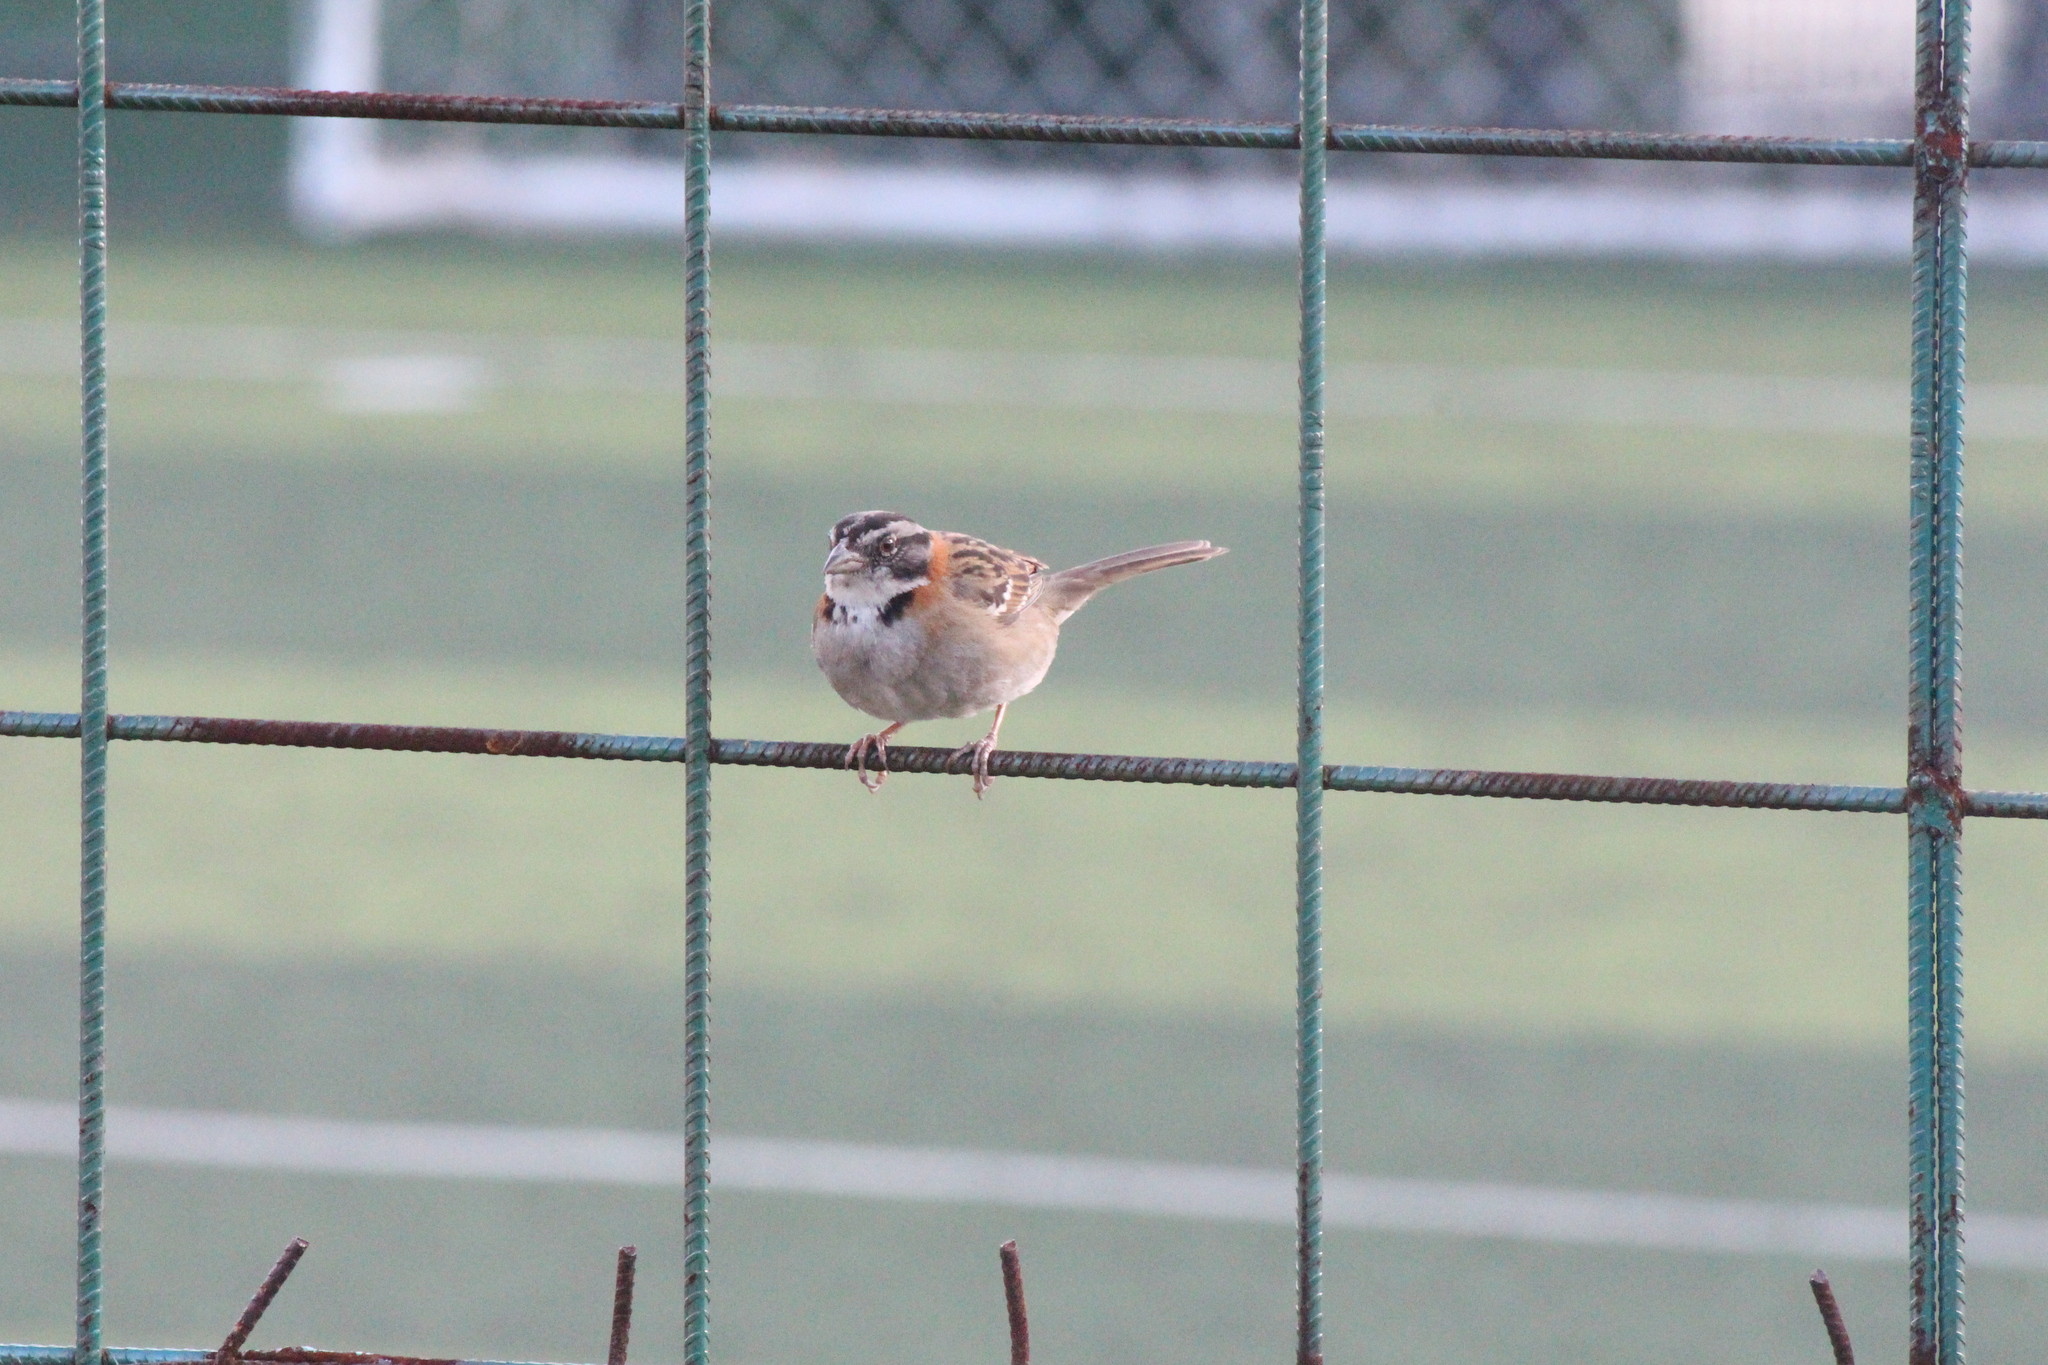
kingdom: Animalia
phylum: Chordata
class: Aves
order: Passeriformes
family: Passerellidae
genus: Zonotrichia
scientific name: Zonotrichia capensis
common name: Rufous-collared sparrow
